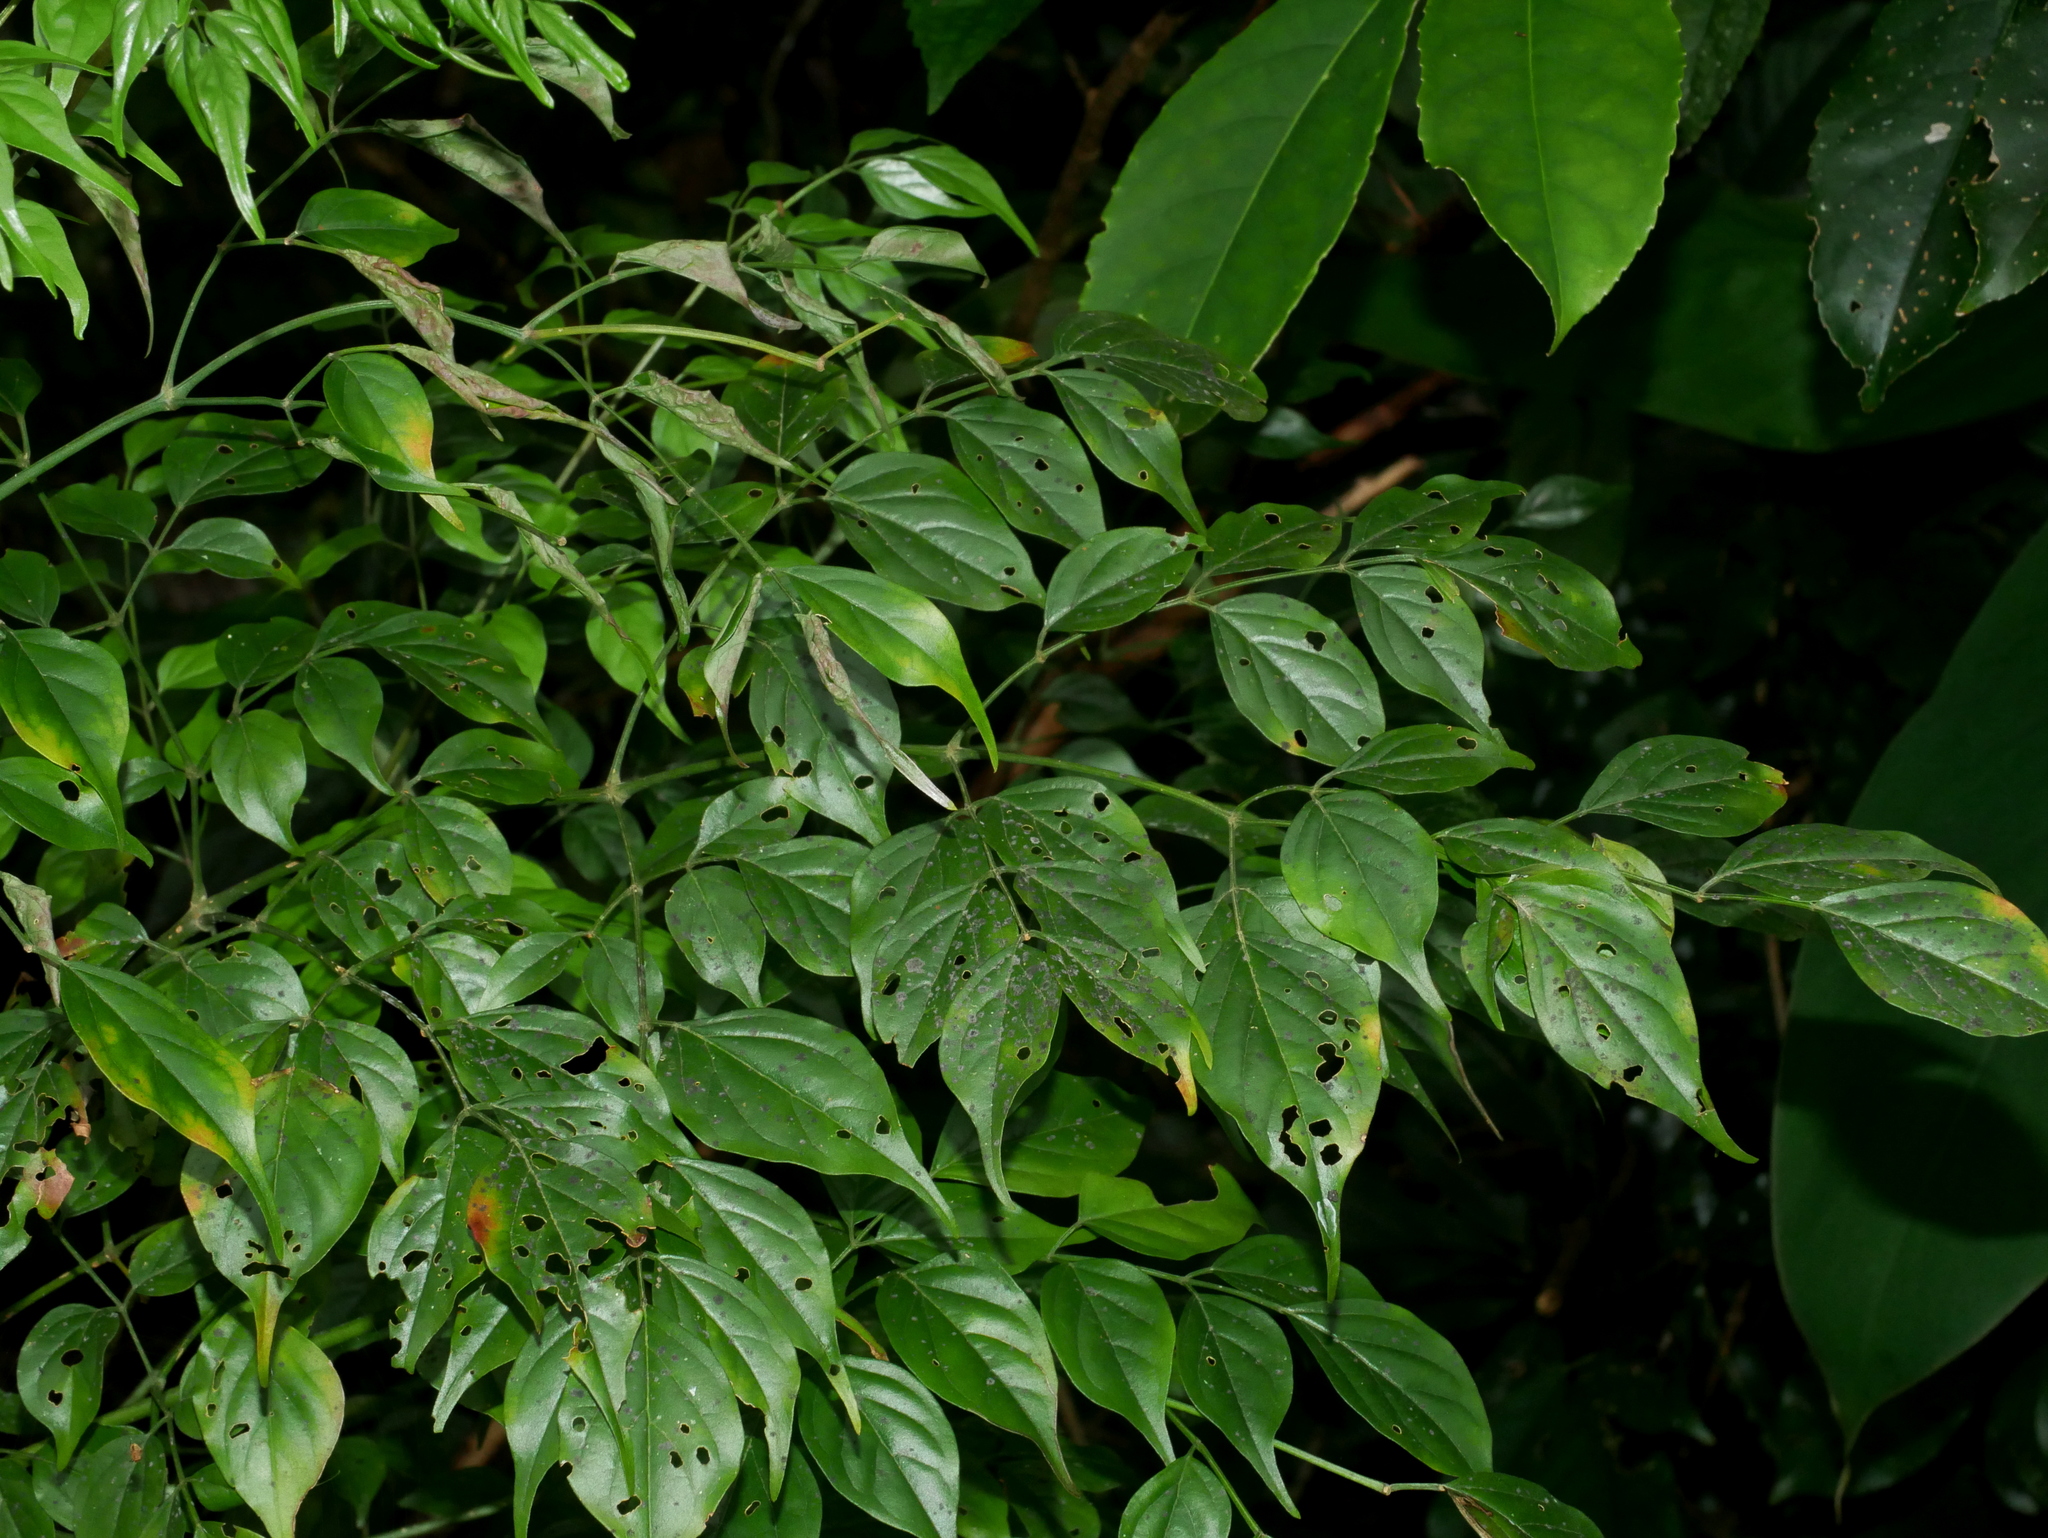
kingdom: Plantae
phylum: Tracheophyta
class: Magnoliopsida
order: Lamiales
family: Bignoniaceae
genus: Radermachera
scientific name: Radermachera sinica
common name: China doll plant
